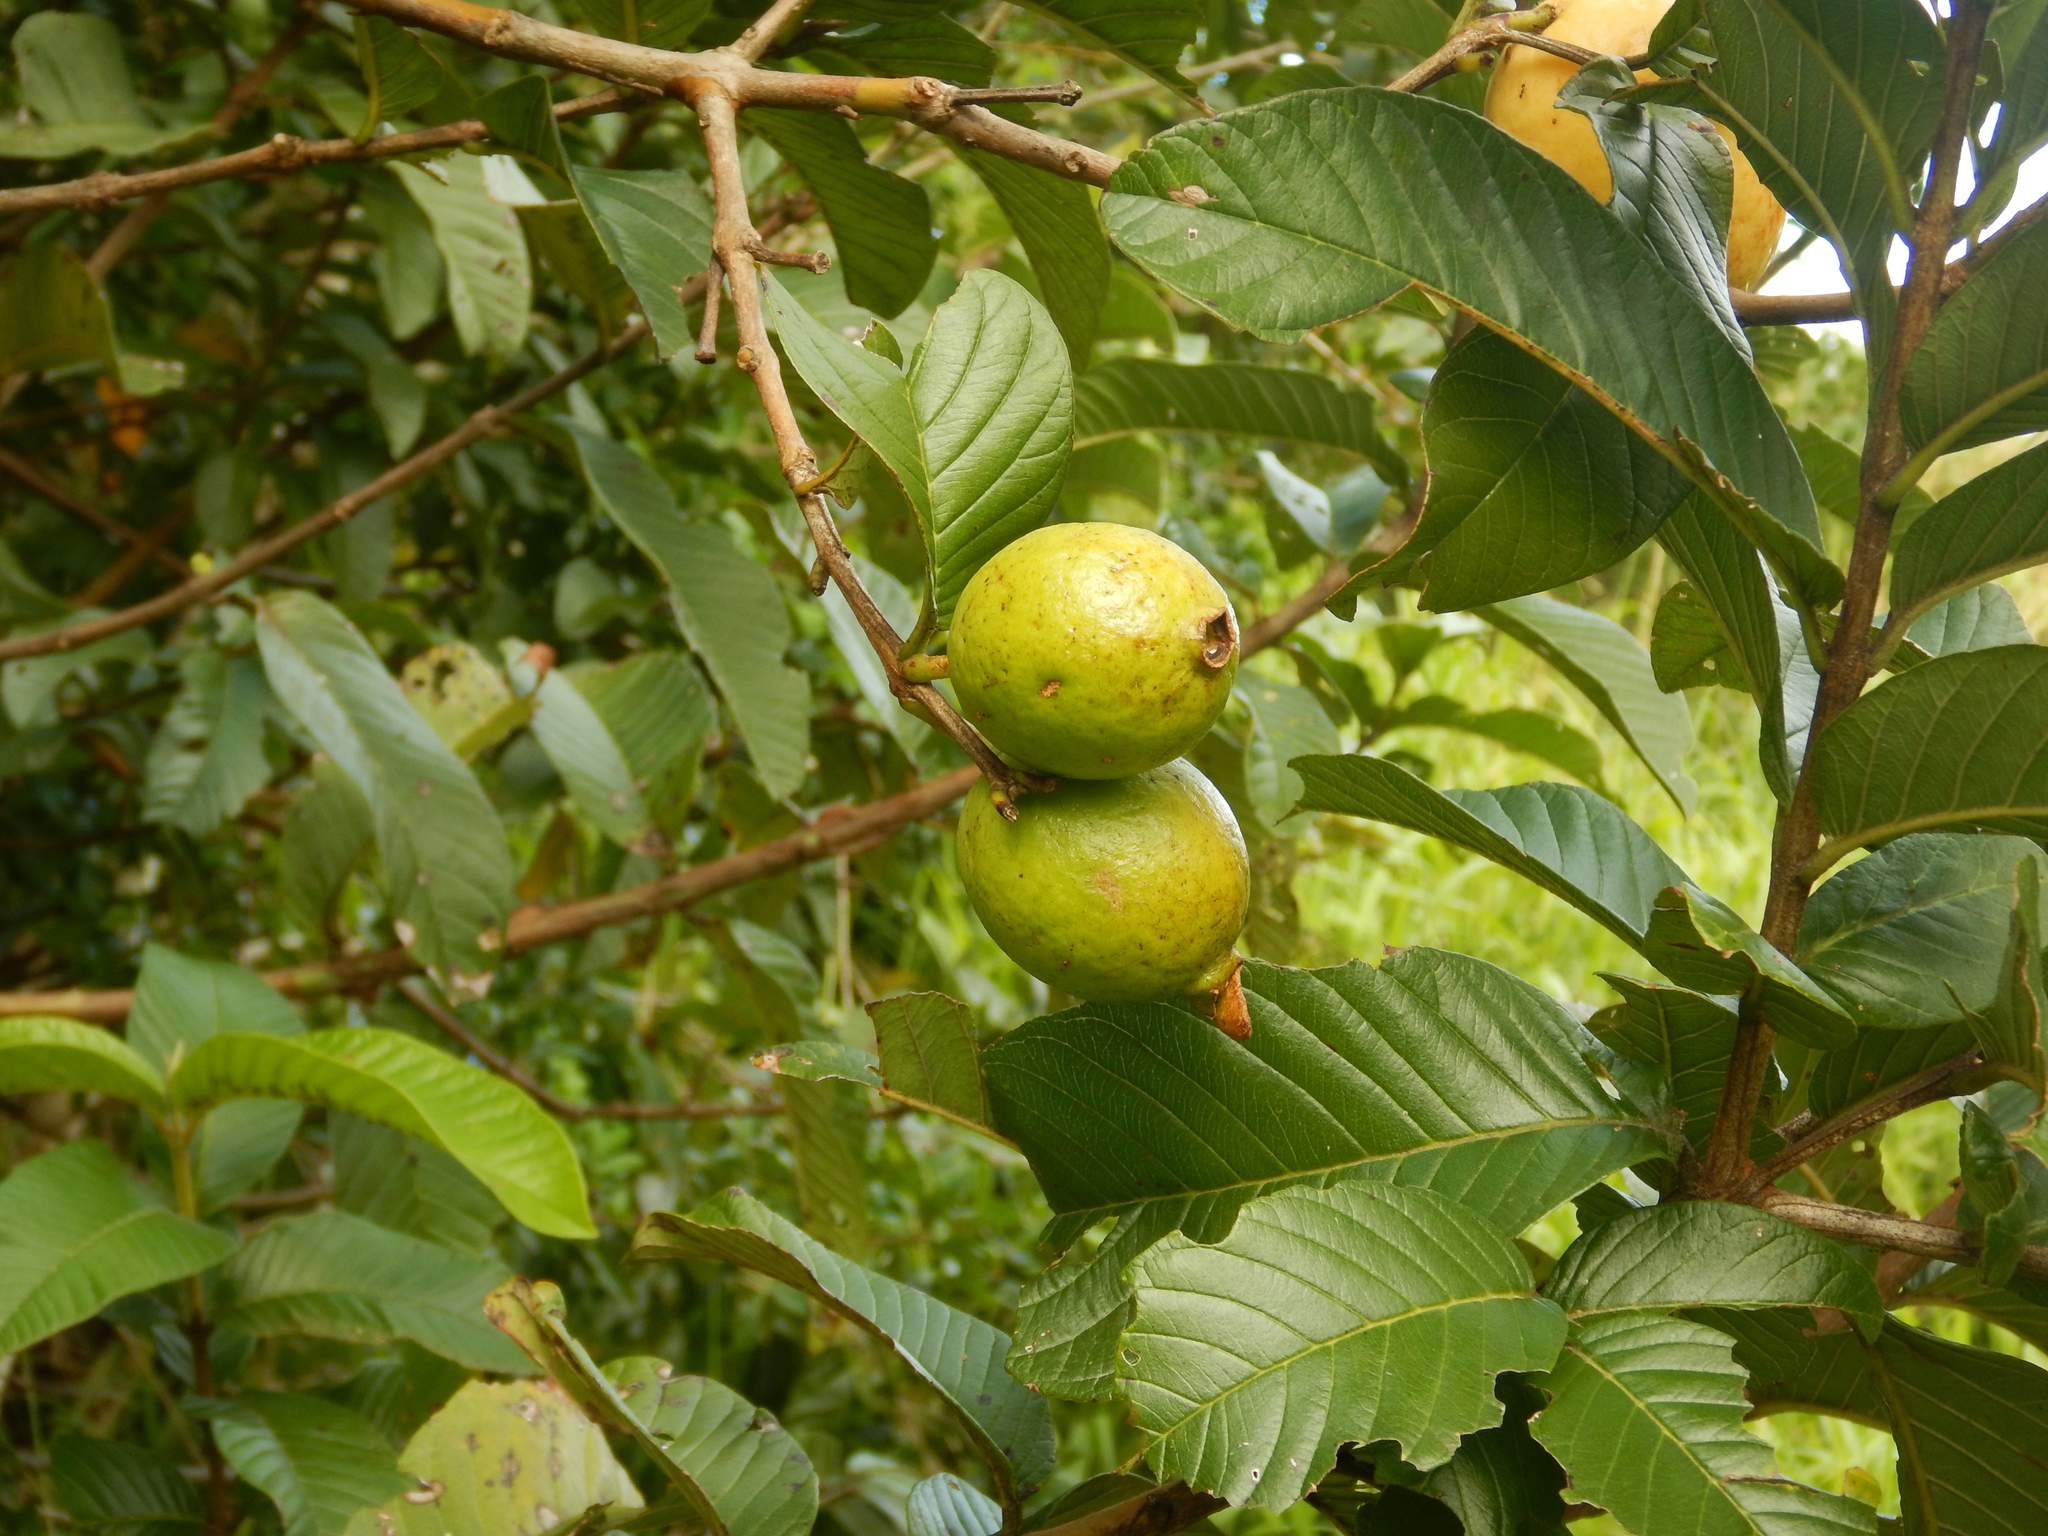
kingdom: Plantae
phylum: Tracheophyta
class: Magnoliopsida
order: Myrtales
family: Myrtaceae
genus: Psidium
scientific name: Psidium guajava
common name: Guava
